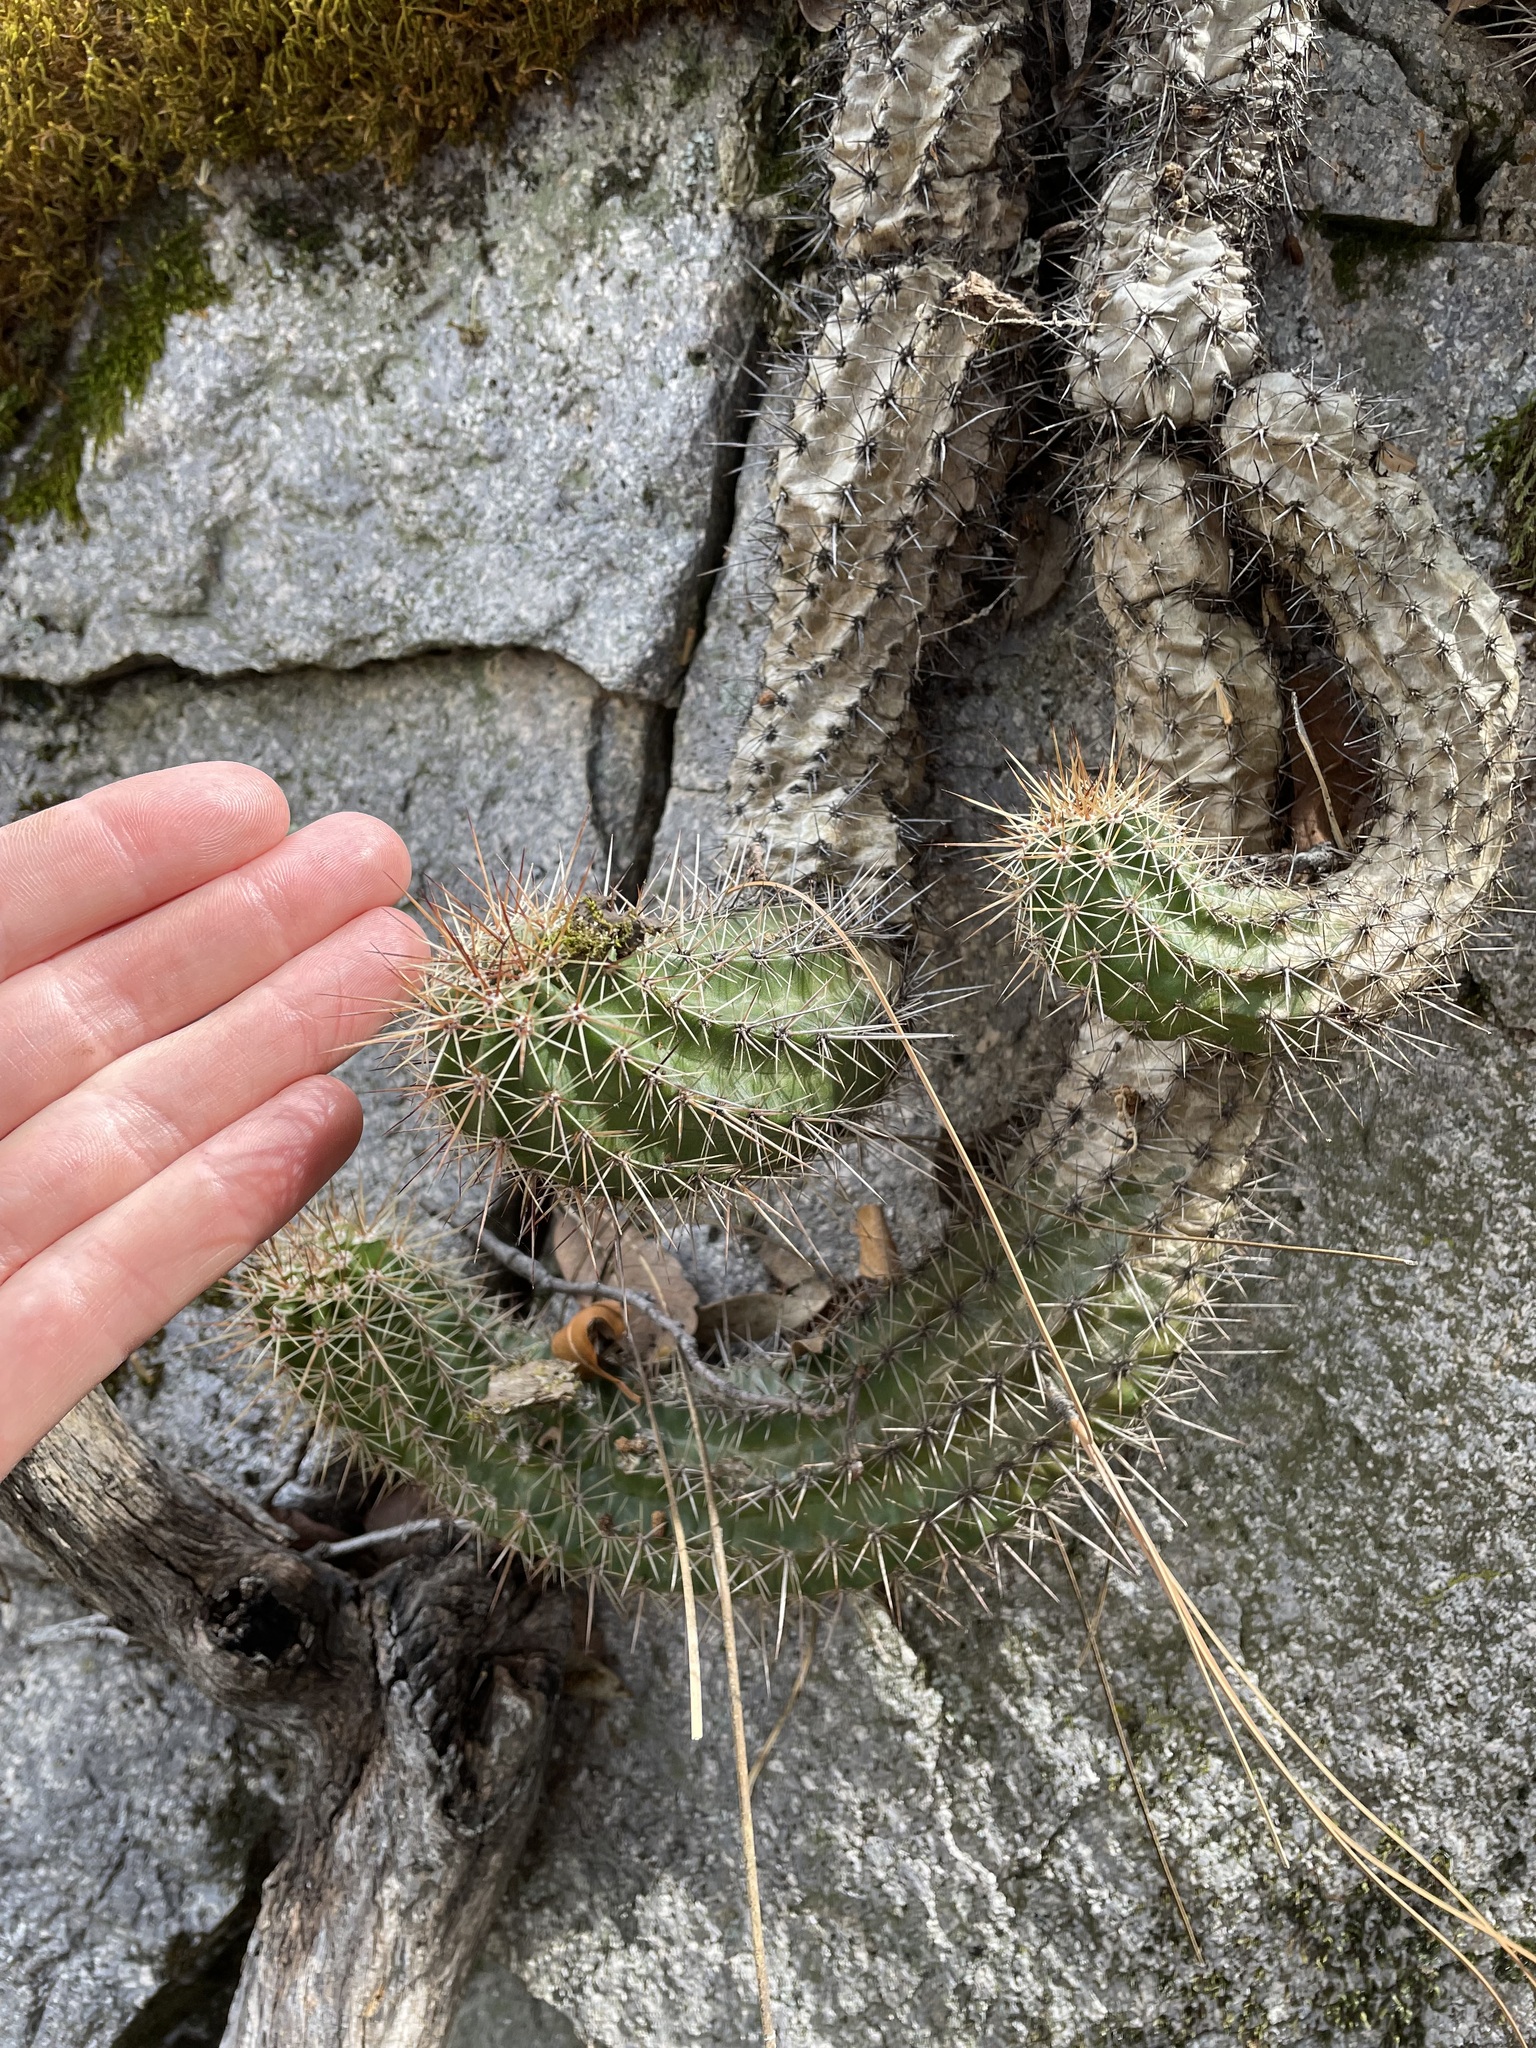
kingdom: Plantae
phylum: Tracheophyta
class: Magnoliopsida
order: Caryophyllales
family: Cactaceae
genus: Echinocereus
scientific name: Echinocereus coccineus
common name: Scarlet hedgehog cactus
